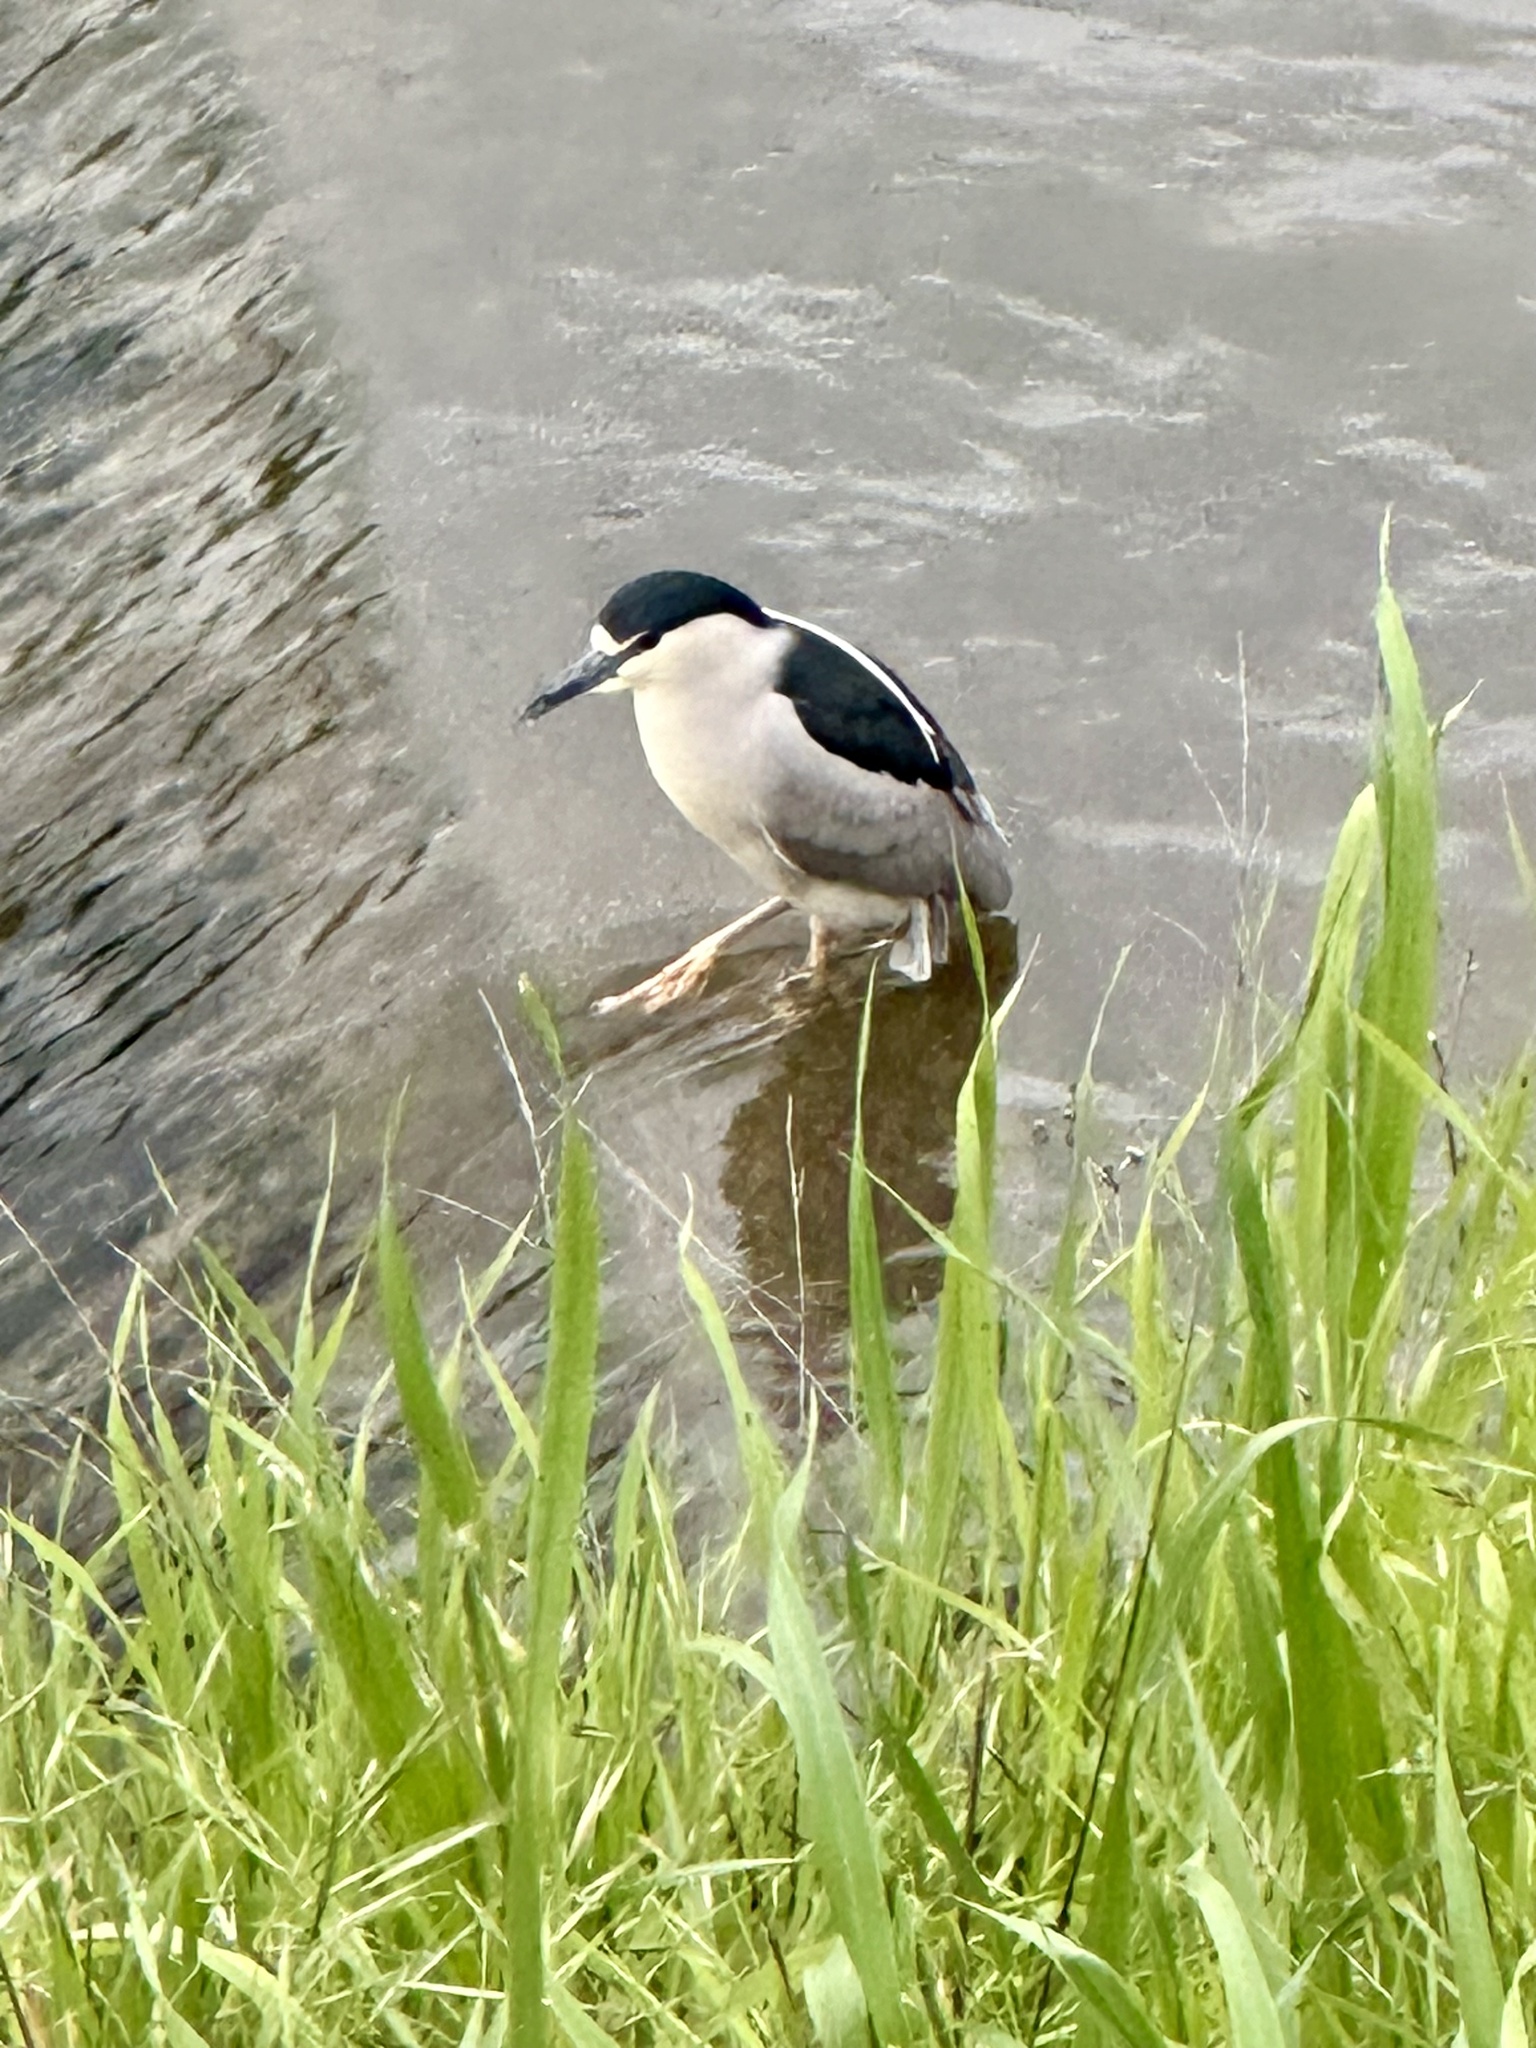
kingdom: Animalia
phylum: Chordata
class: Aves
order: Pelecaniformes
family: Ardeidae
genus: Nycticorax
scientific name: Nycticorax nycticorax
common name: Black-crowned night heron
